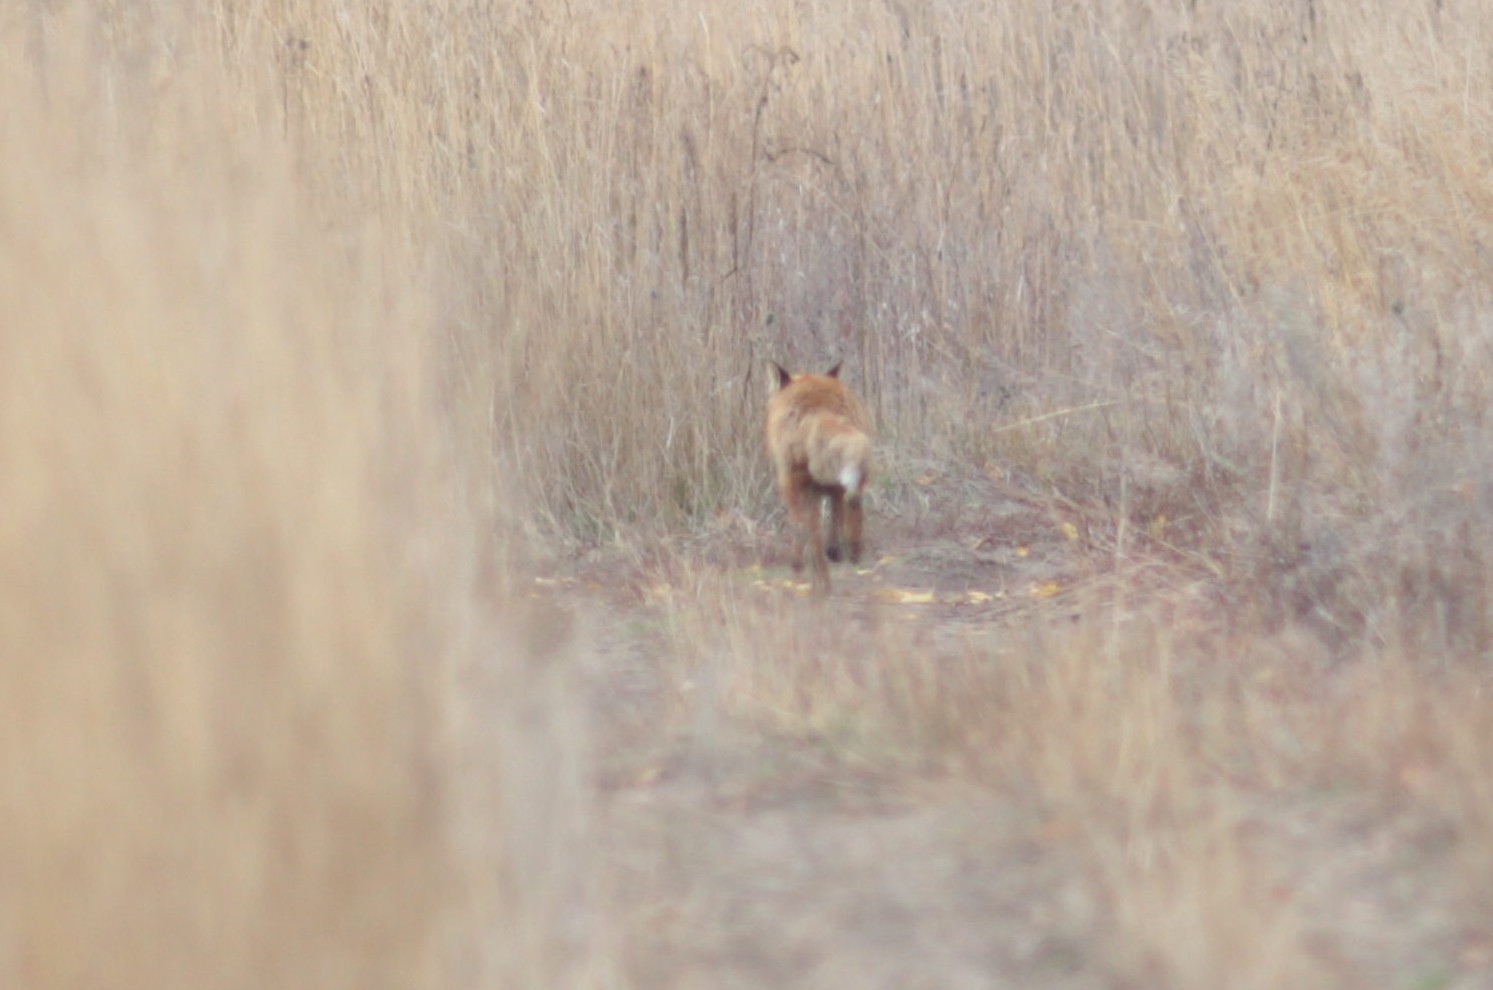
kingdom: Animalia
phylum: Chordata
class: Mammalia
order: Carnivora
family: Canidae
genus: Vulpes
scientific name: Vulpes vulpes
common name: Red fox
